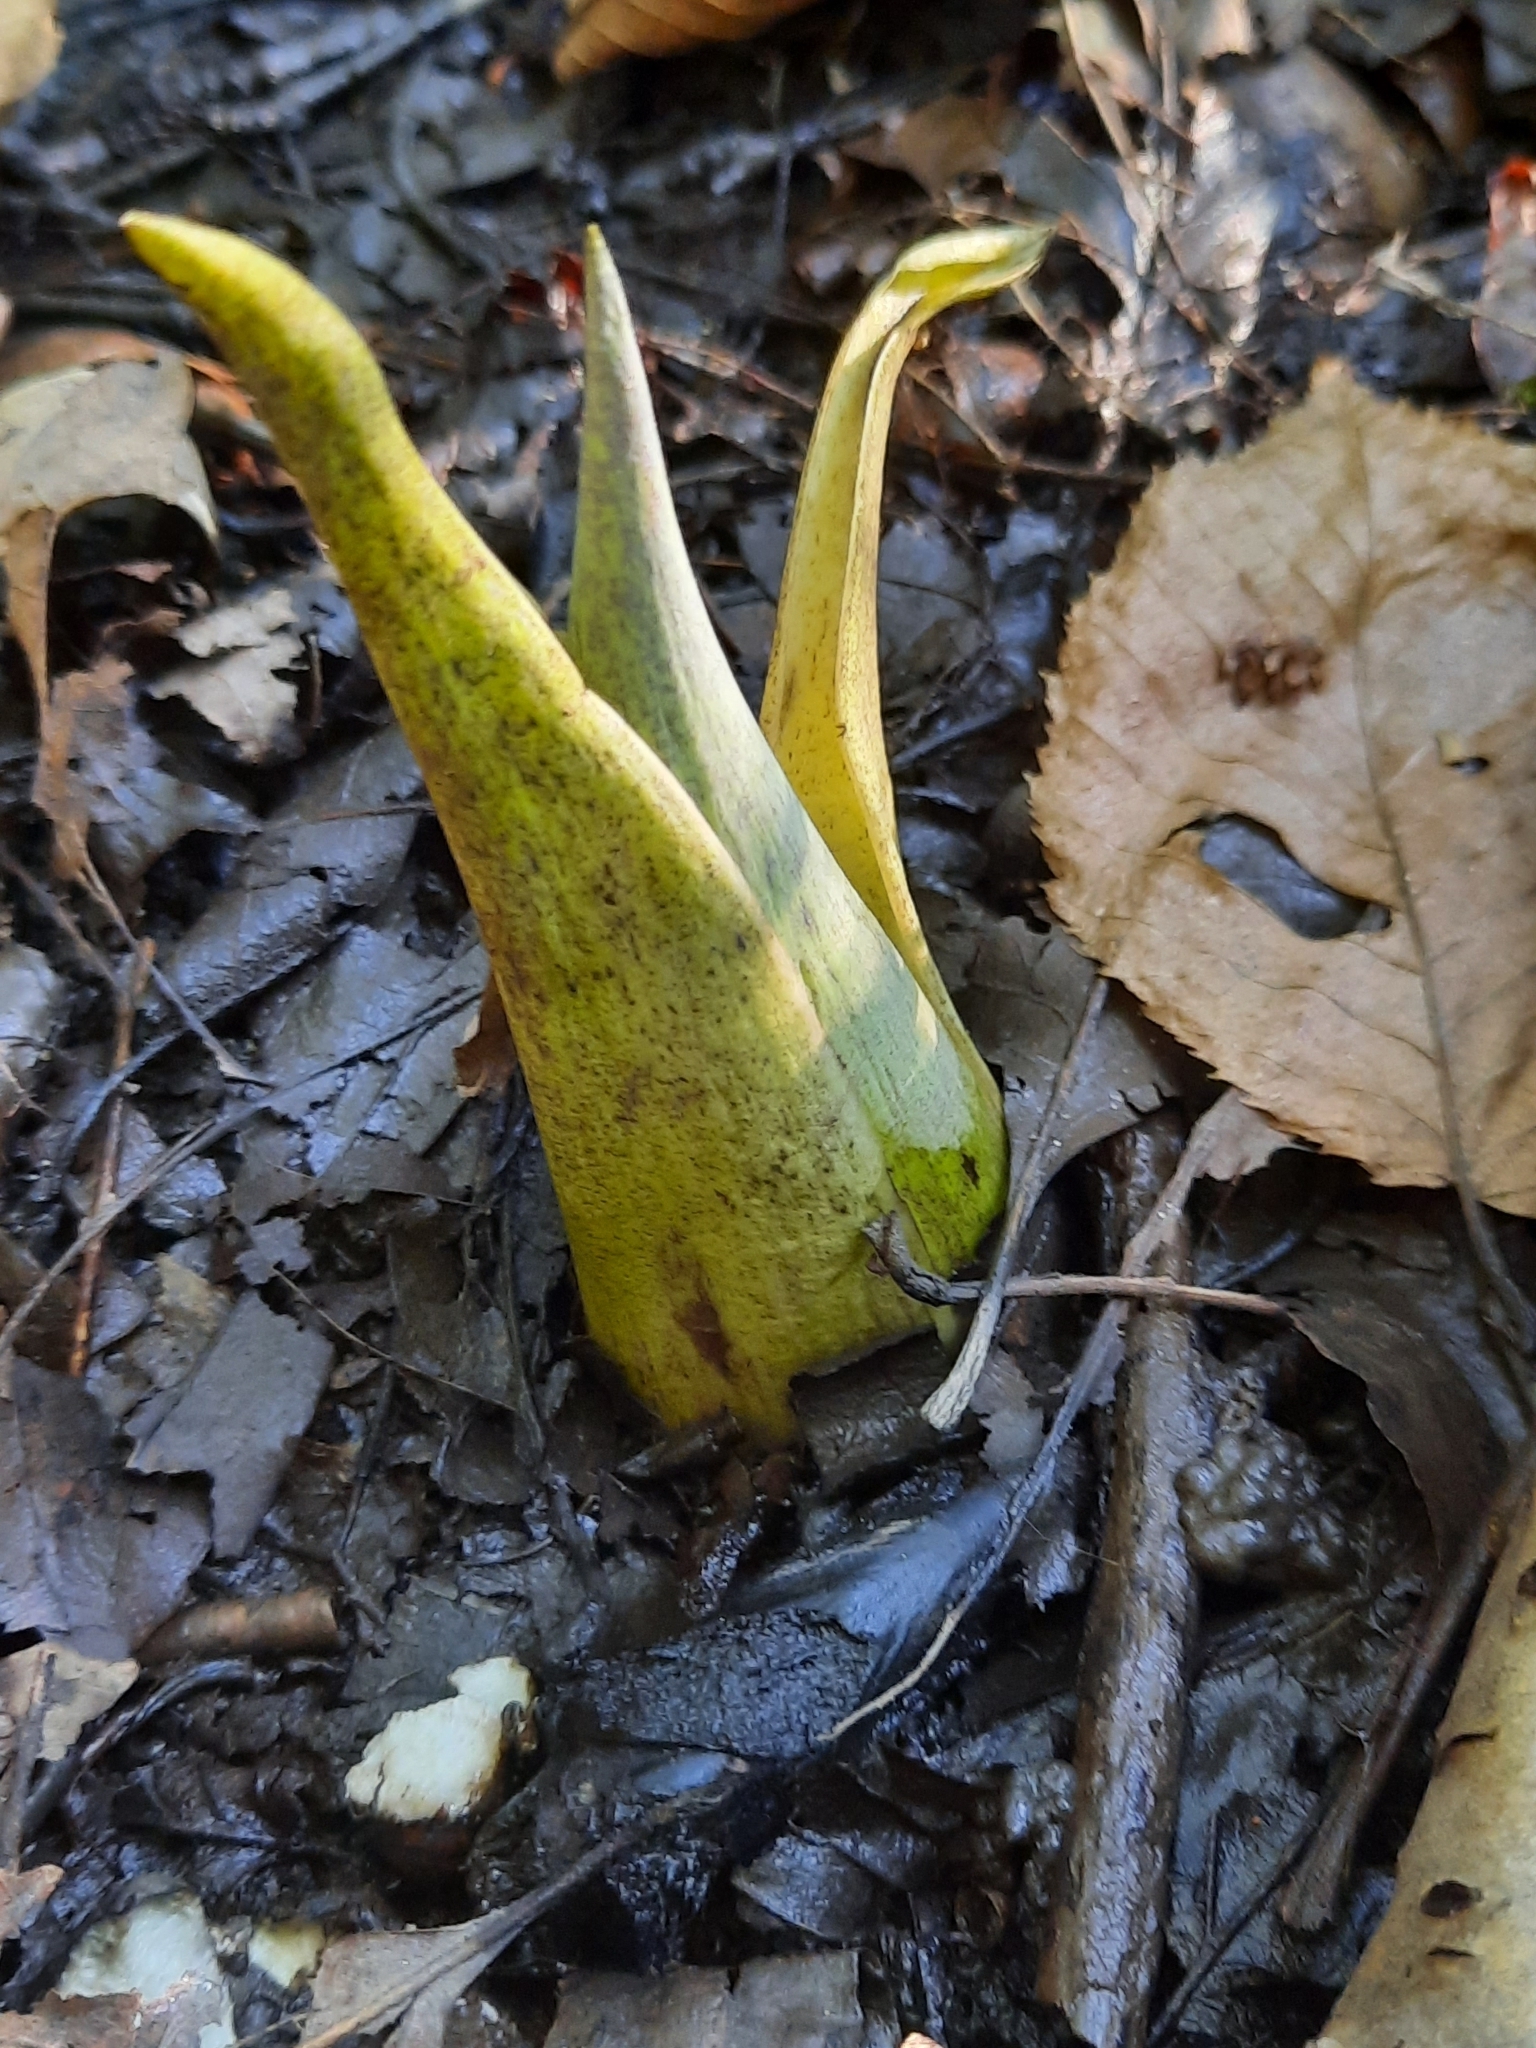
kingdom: Plantae
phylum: Tracheophyta
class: Liliopsida
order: Alismatales
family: Araceae
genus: Symplocarpus
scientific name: Symplocarpus foetidus
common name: Eastern skunk cabbage
